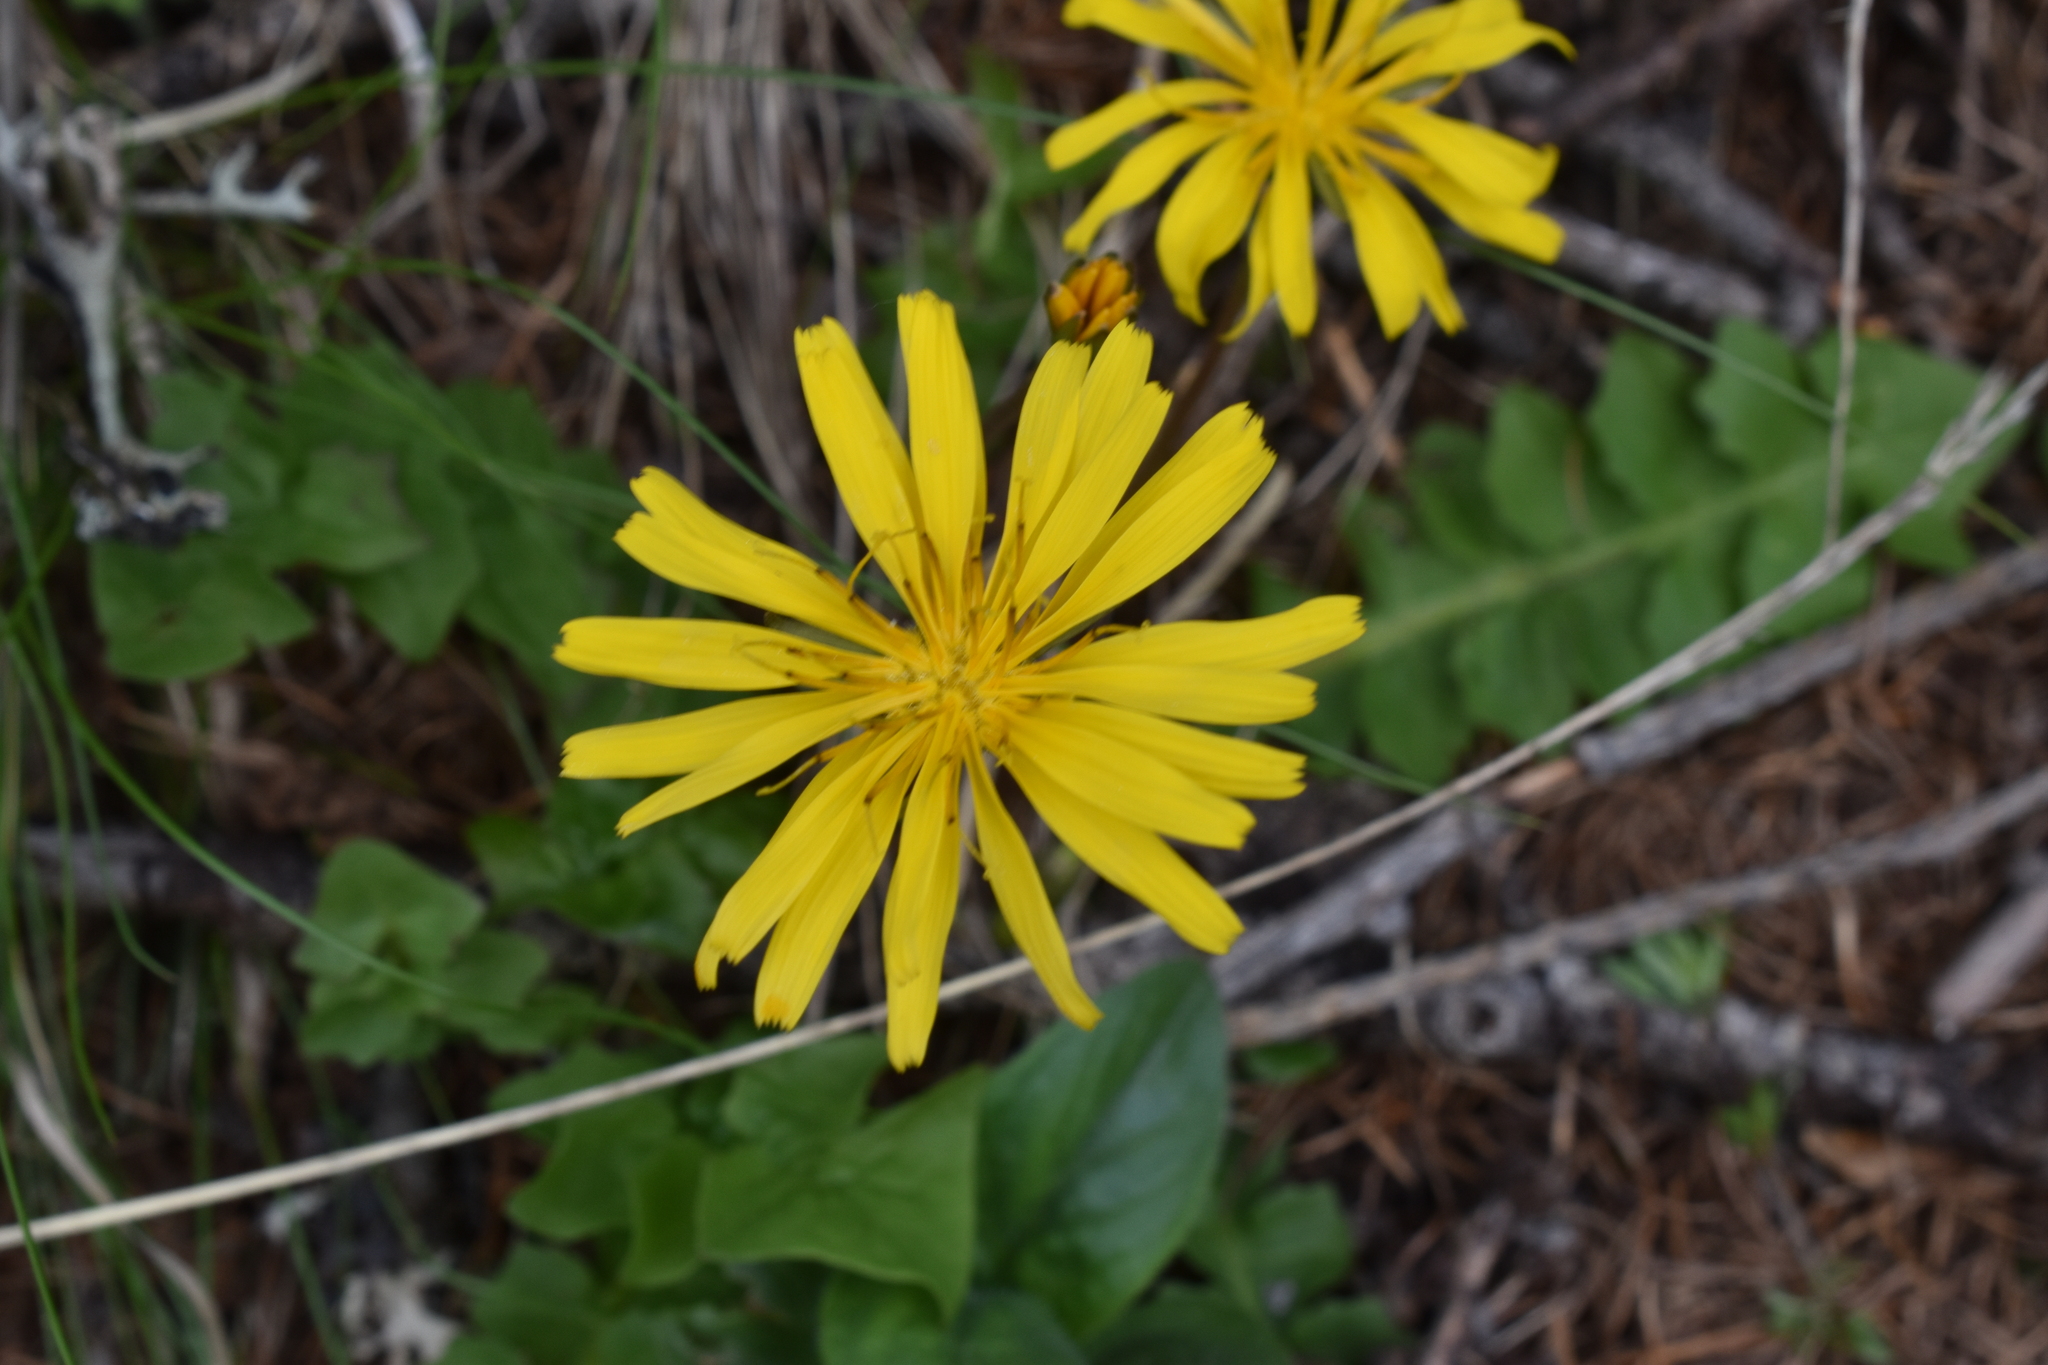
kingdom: Plantae
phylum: Tracheophyta
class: Magnoliopsida
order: Asterales
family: Asteraceae
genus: Aposeris
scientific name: Aposeris foetida
